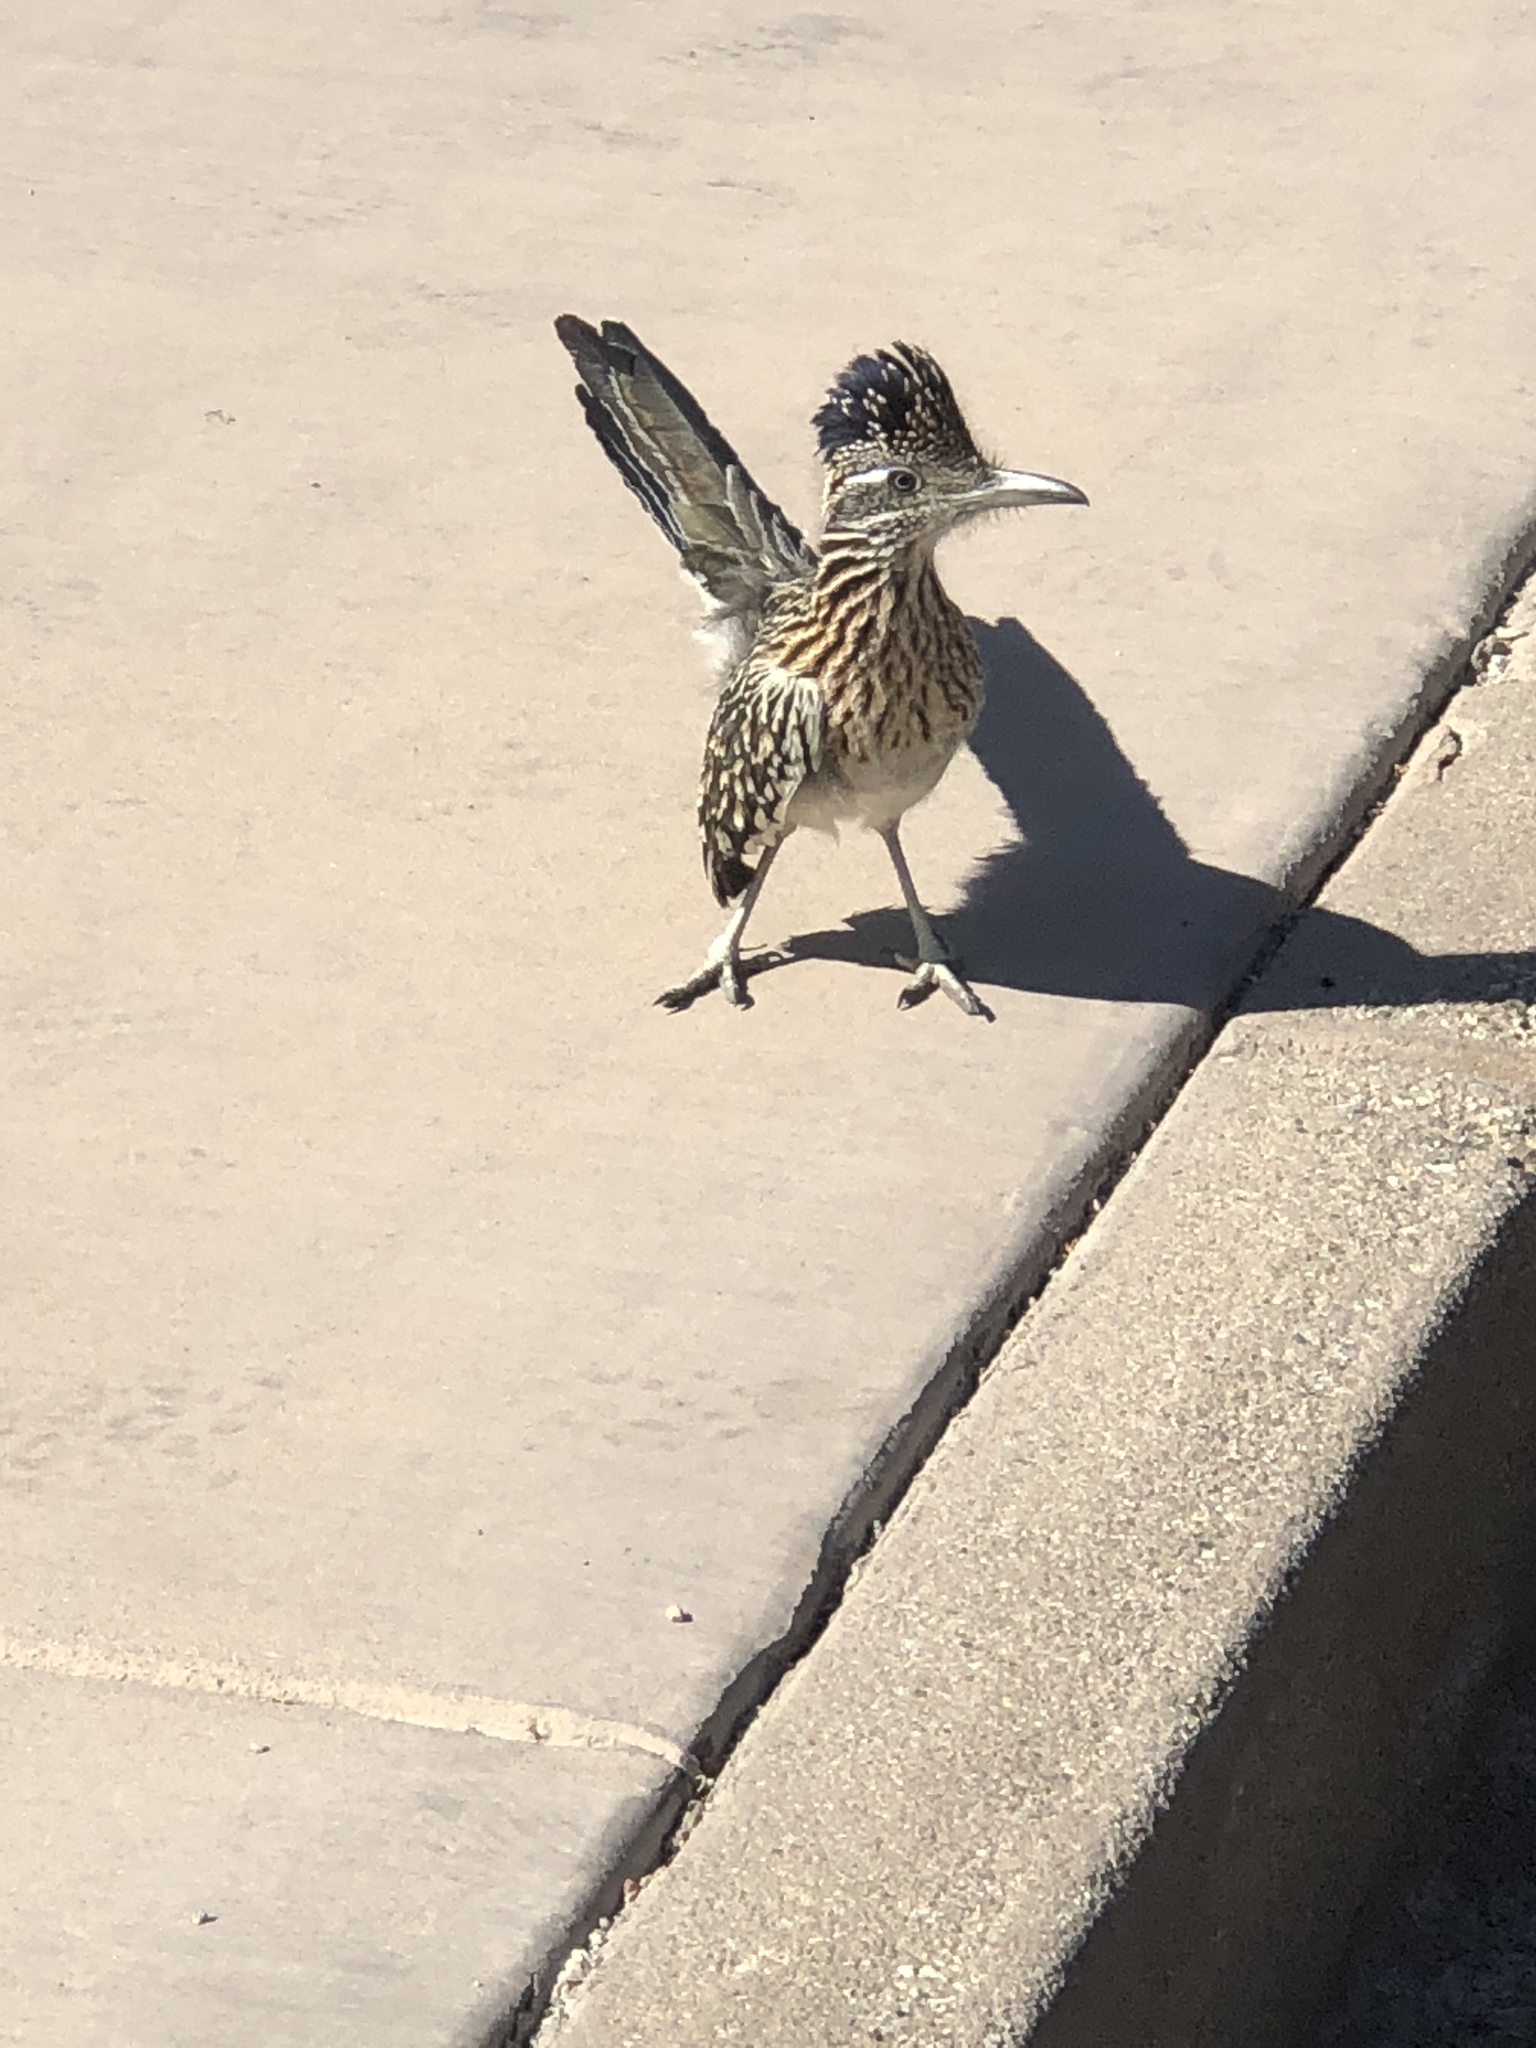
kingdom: Animalia
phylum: Chordata
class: Aves
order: Cuculiformes
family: Cuculidae
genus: Geococcyx
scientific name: Geococcyx californianus
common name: Greater roadrunner
